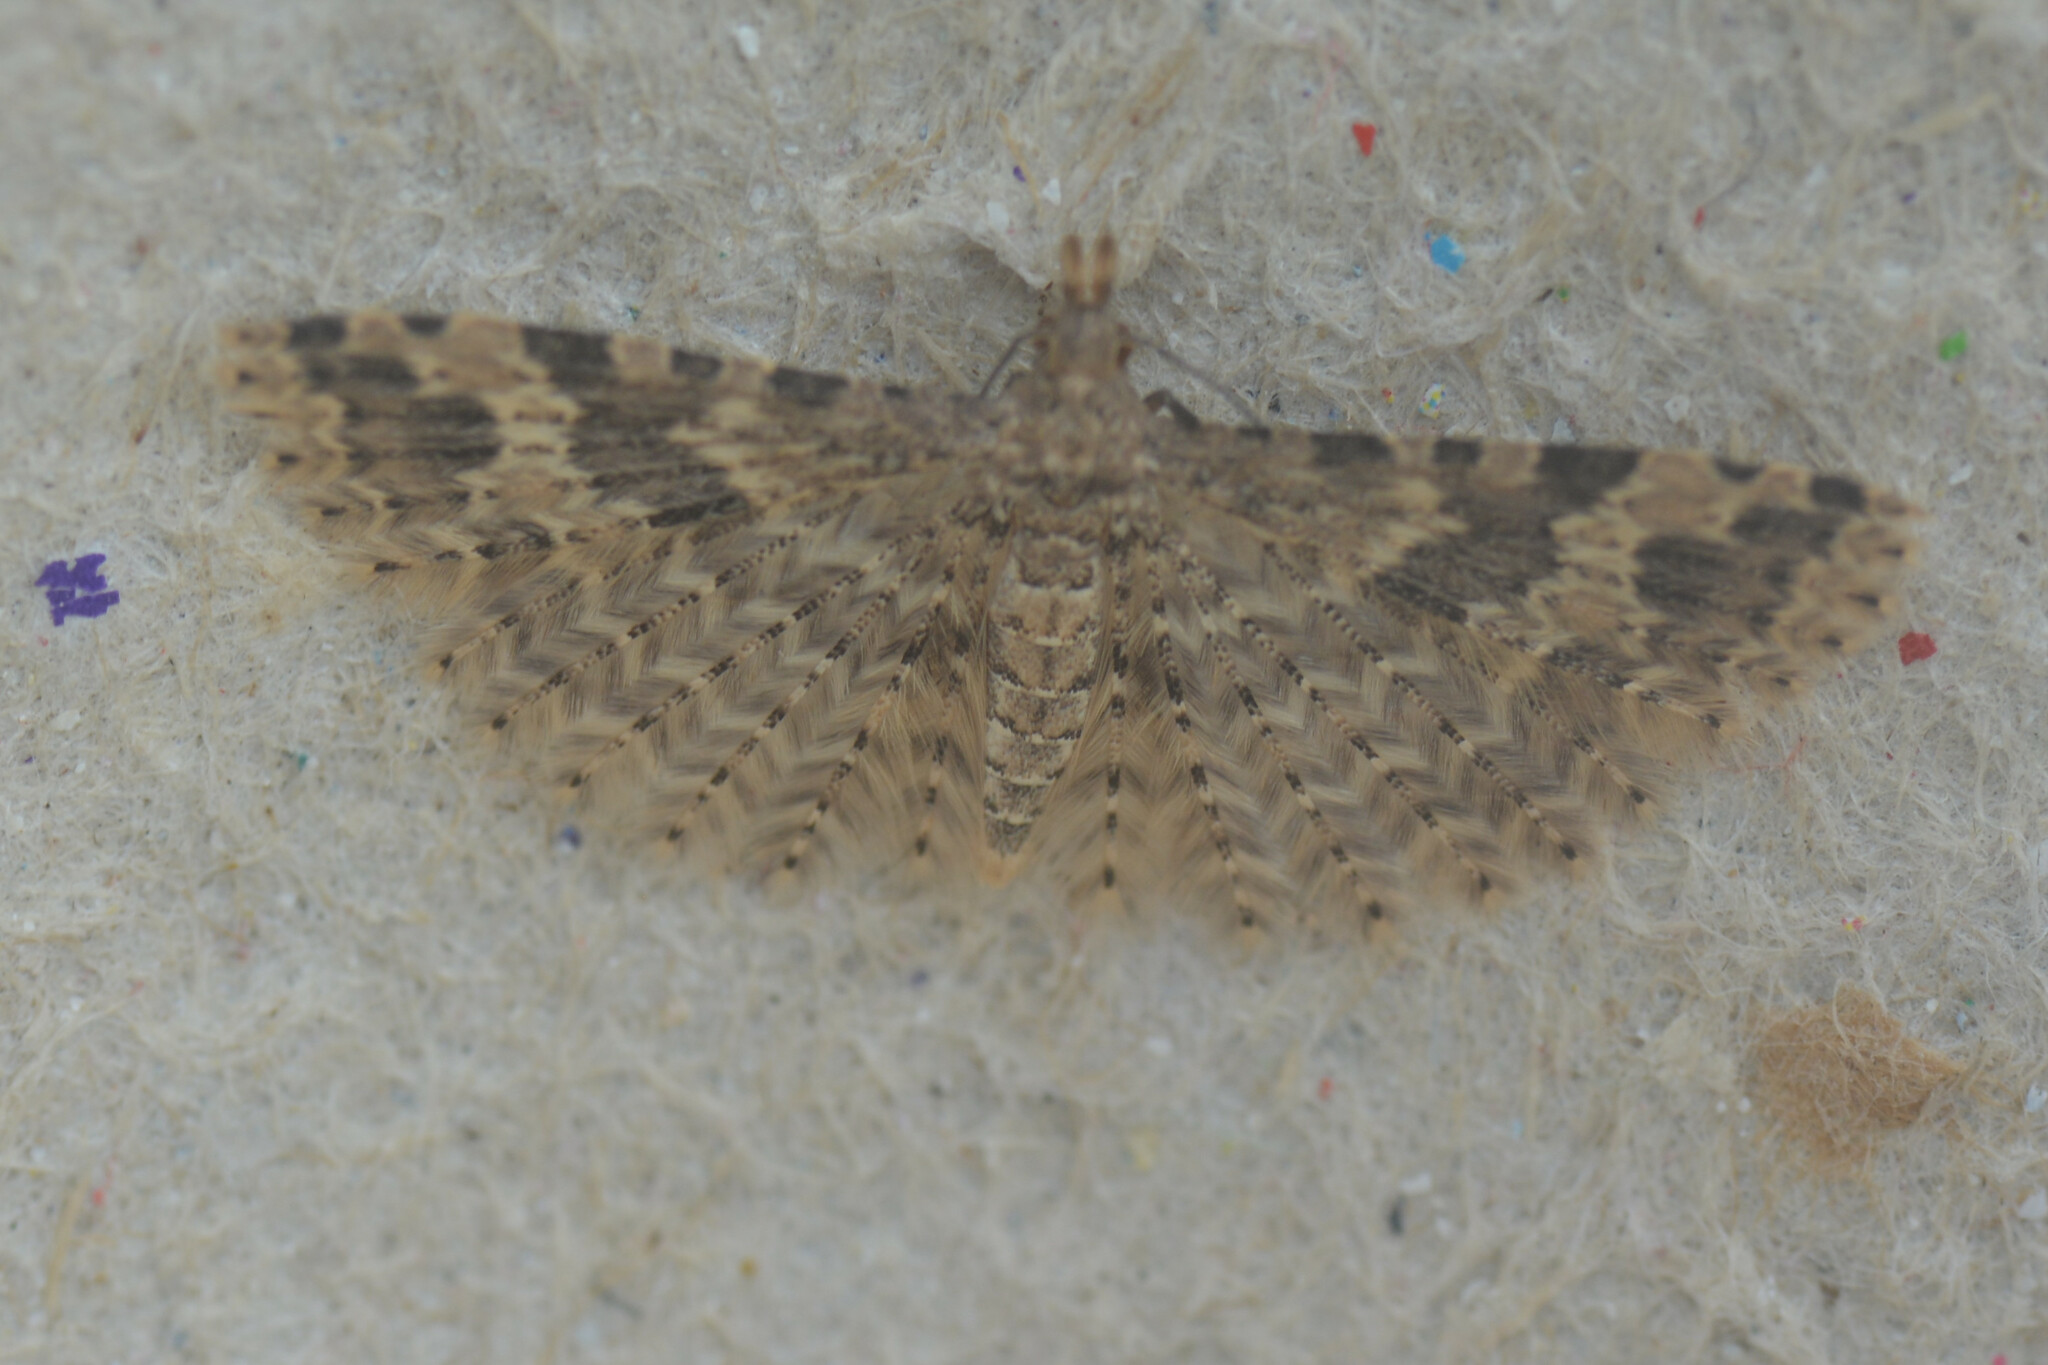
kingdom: Animalia
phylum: Arthropoda
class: Insecta
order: Lepidoptera
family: Alucitidae
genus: Alucita
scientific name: Alucita hexadactyla
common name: Twenty-plume moth
